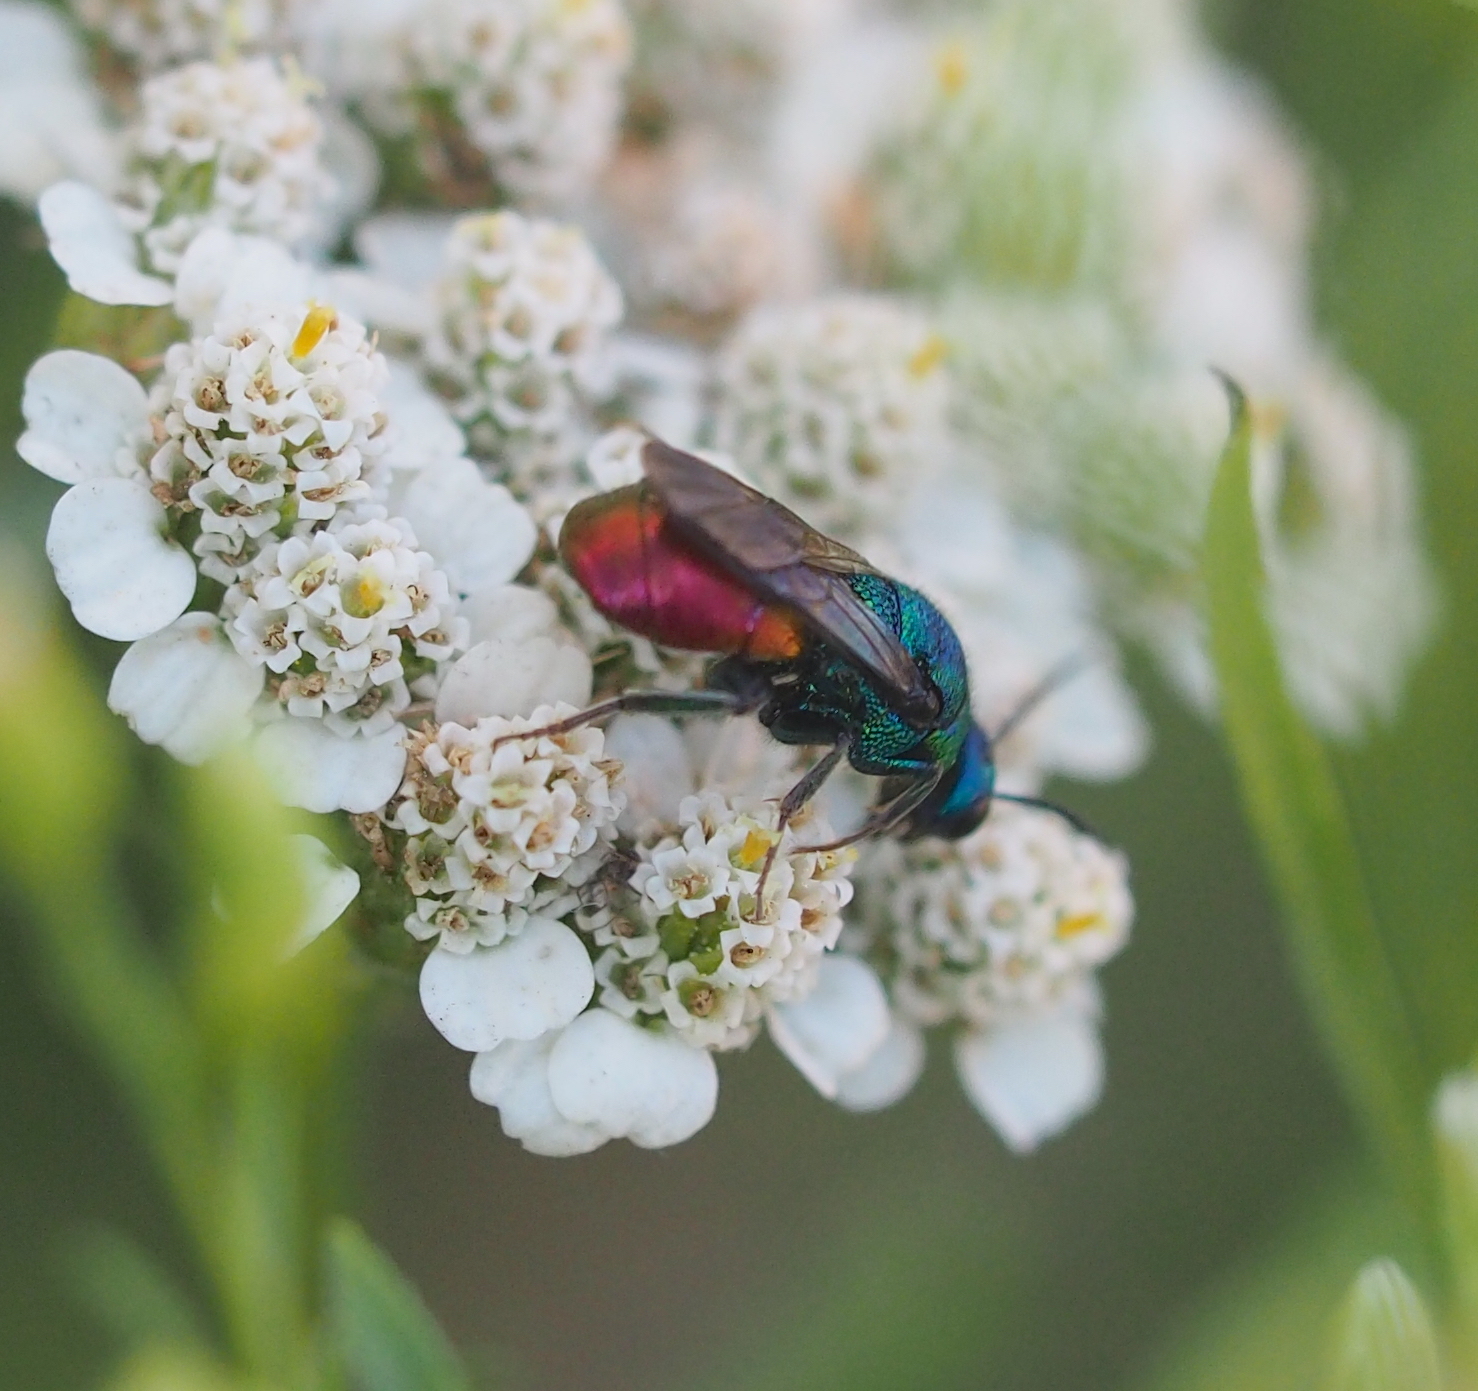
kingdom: Animalia
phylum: Arthropoda
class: Insecta
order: Hymenoptera
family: Chrysididae
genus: Hedychrum
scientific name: Hedychrum
